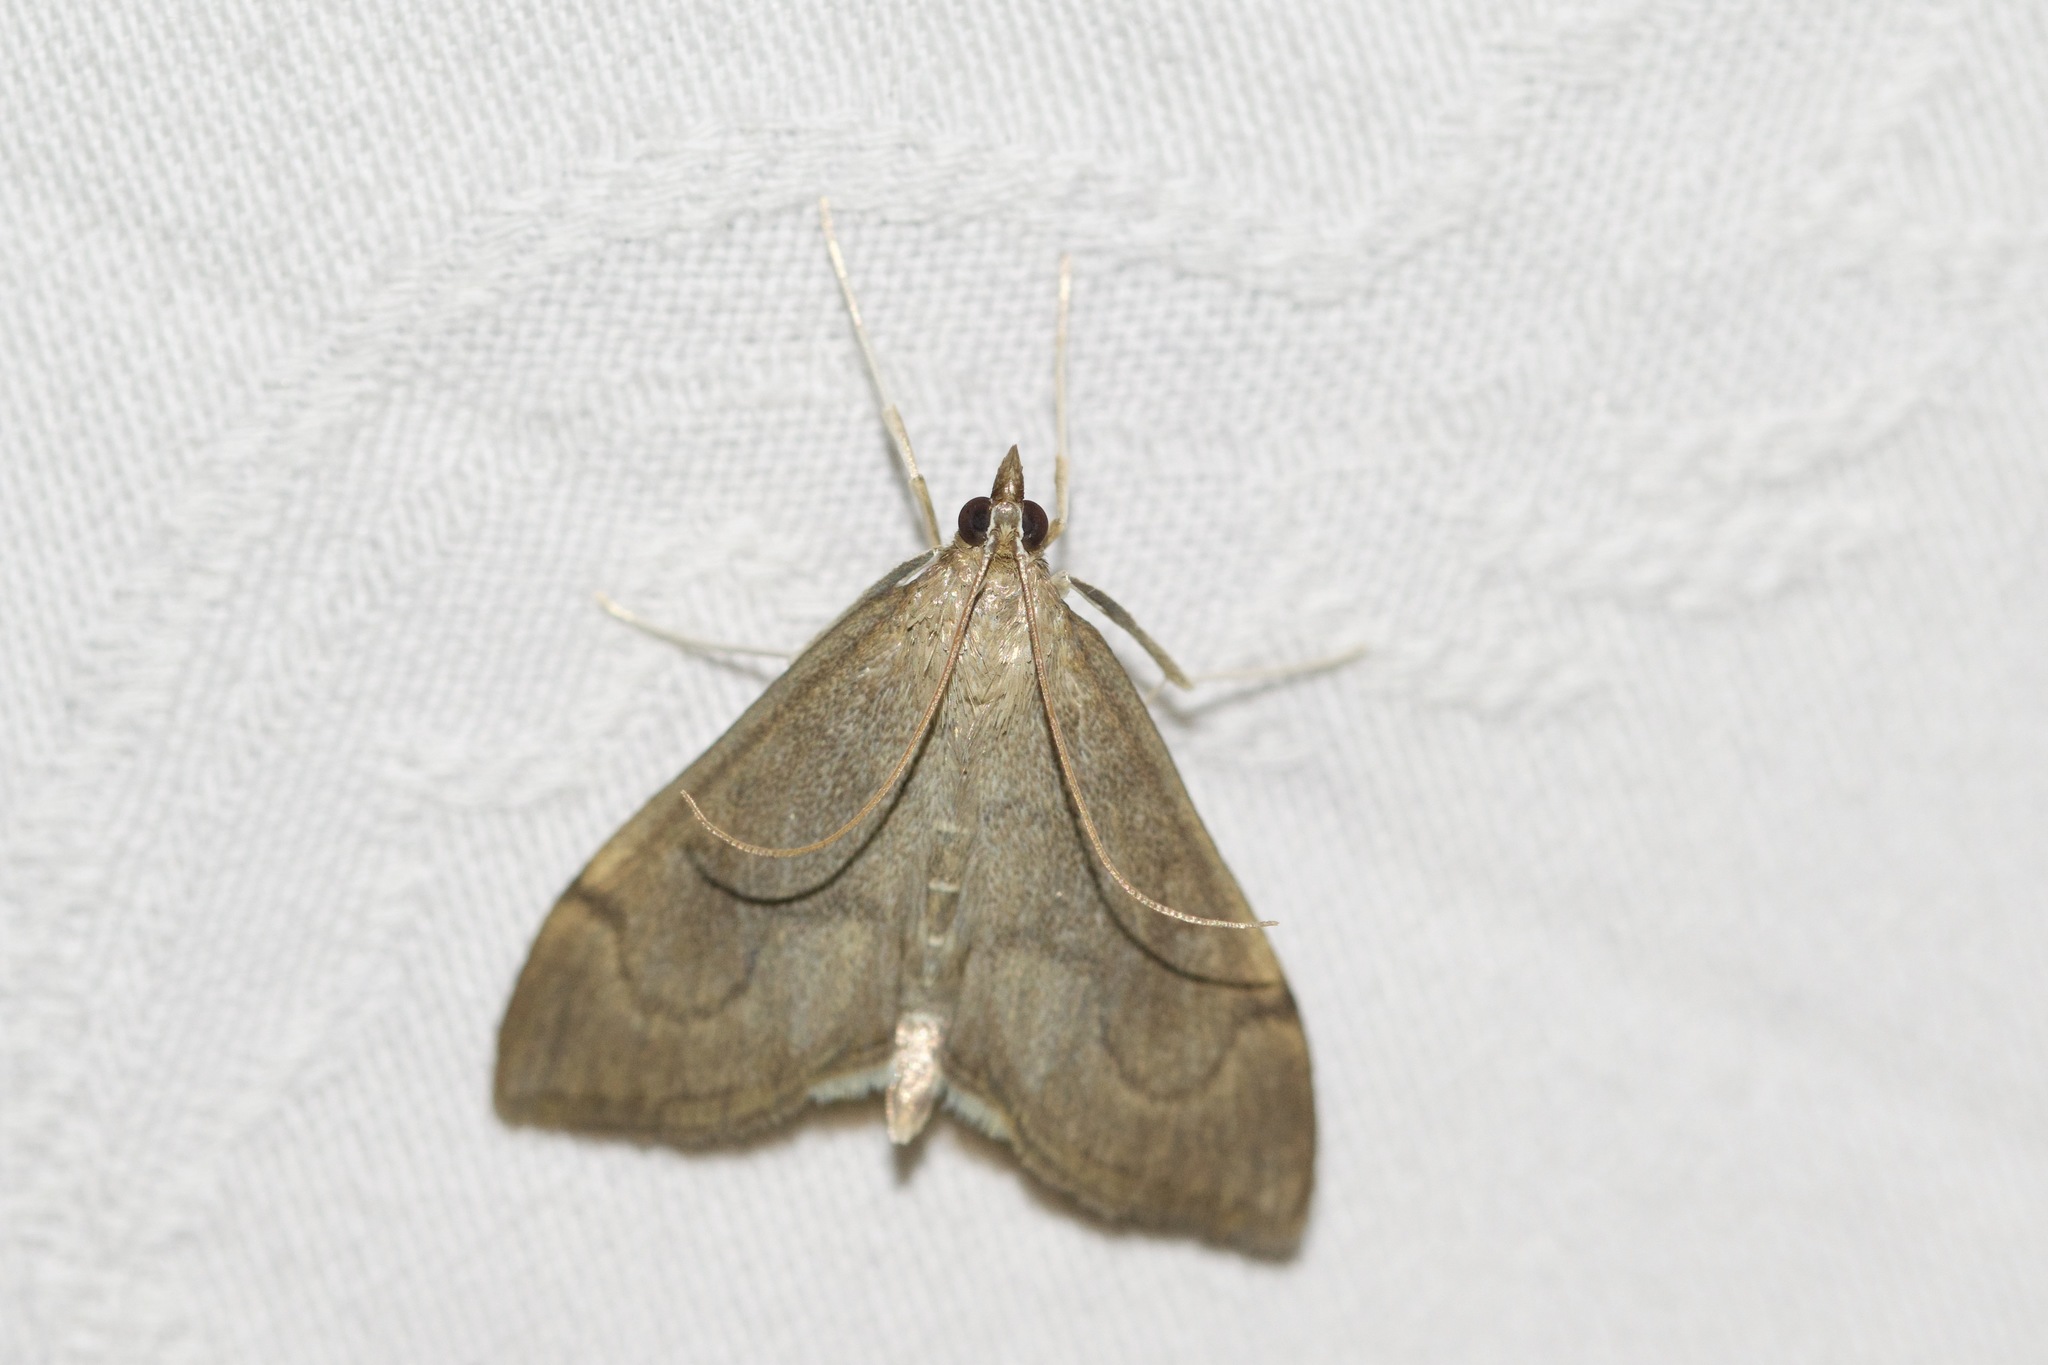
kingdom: Animalia
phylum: Arthropoda
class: Insecta
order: Lepidoptera
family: Crambidae
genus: Anania
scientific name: Anania mysippusalis
